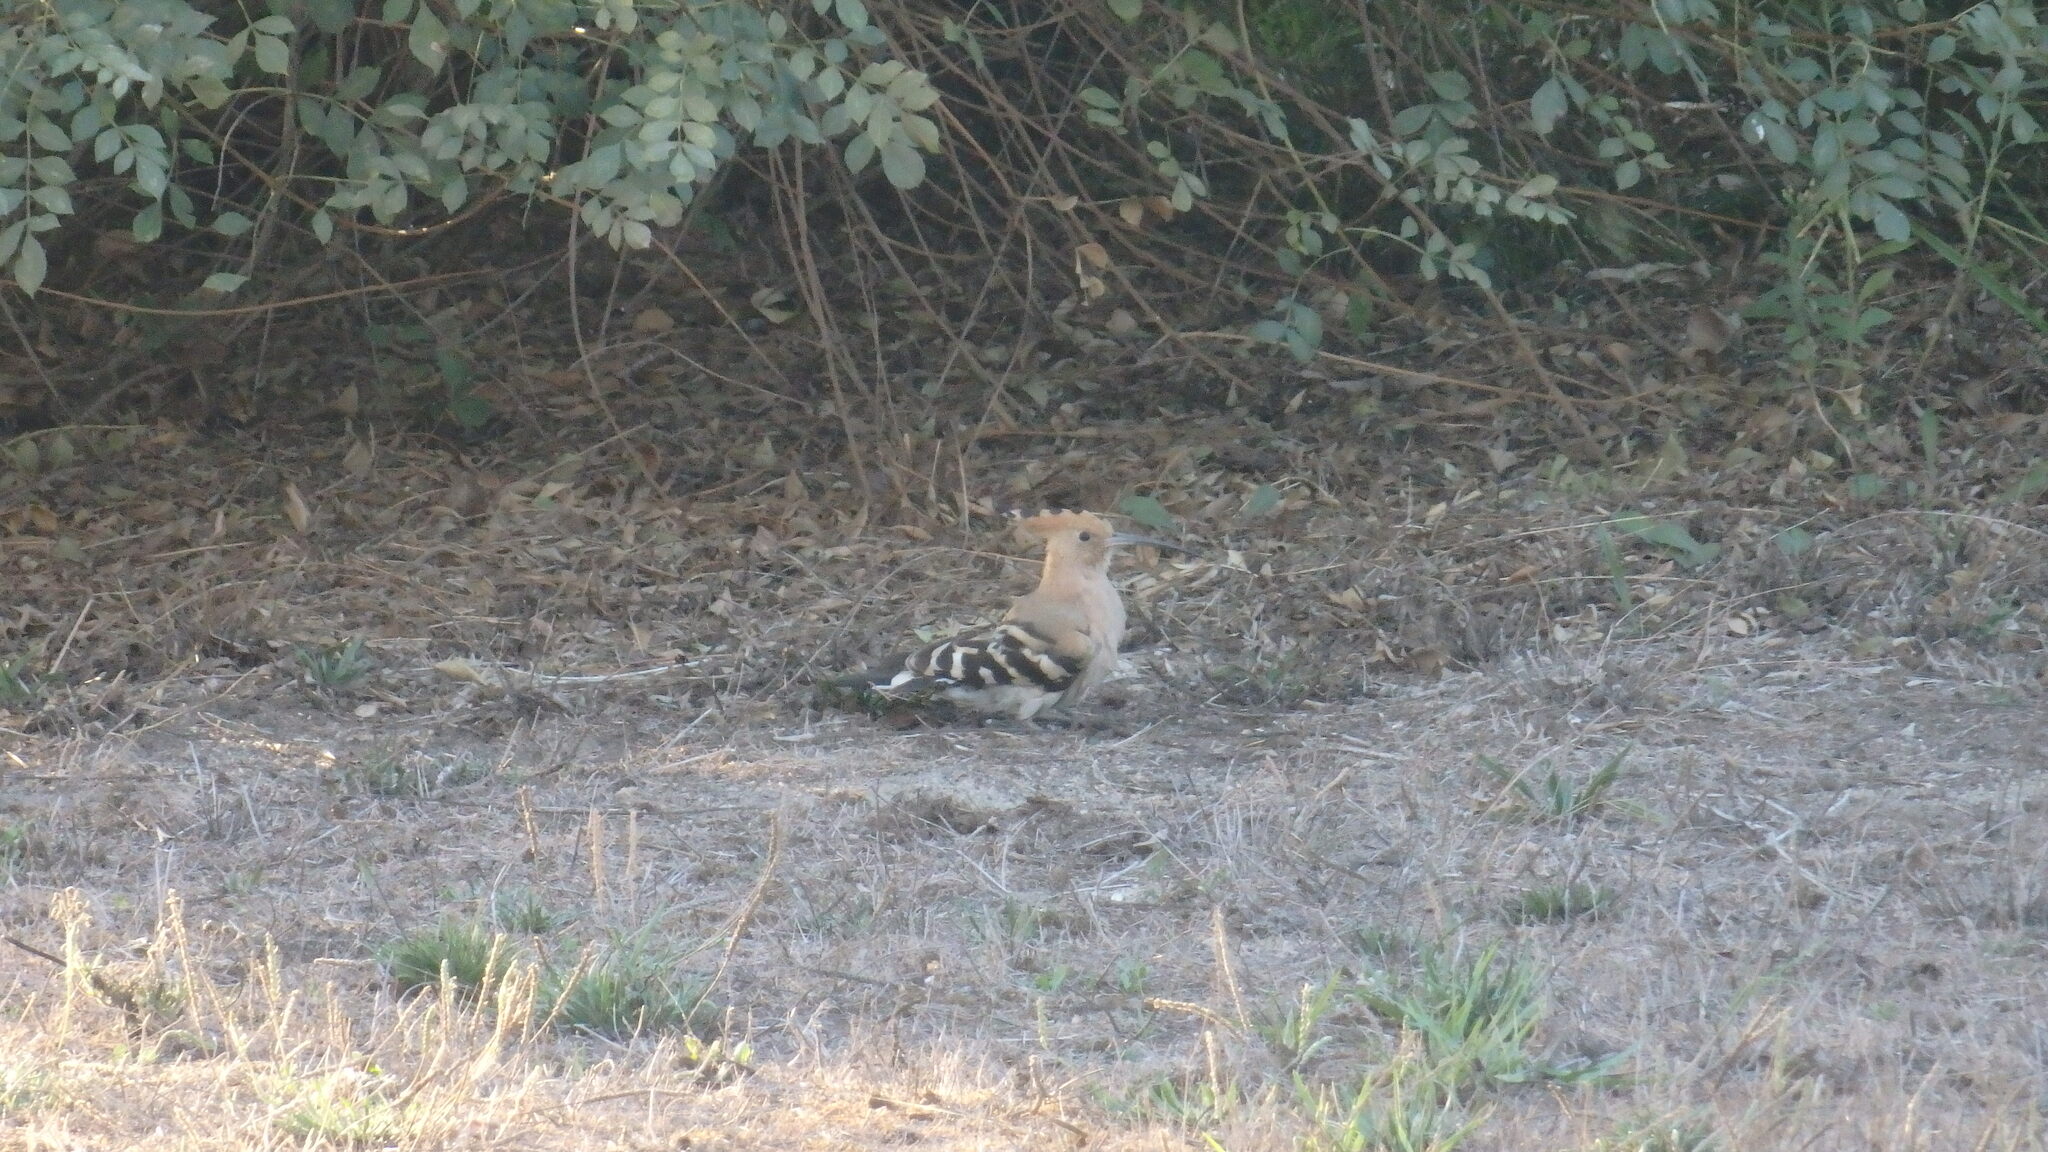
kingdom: Animalia
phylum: Chordata
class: Aves
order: Bucerotiformes
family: Upupidae
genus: Upupa
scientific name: Upupa epops
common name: Eurasian hoopoe
